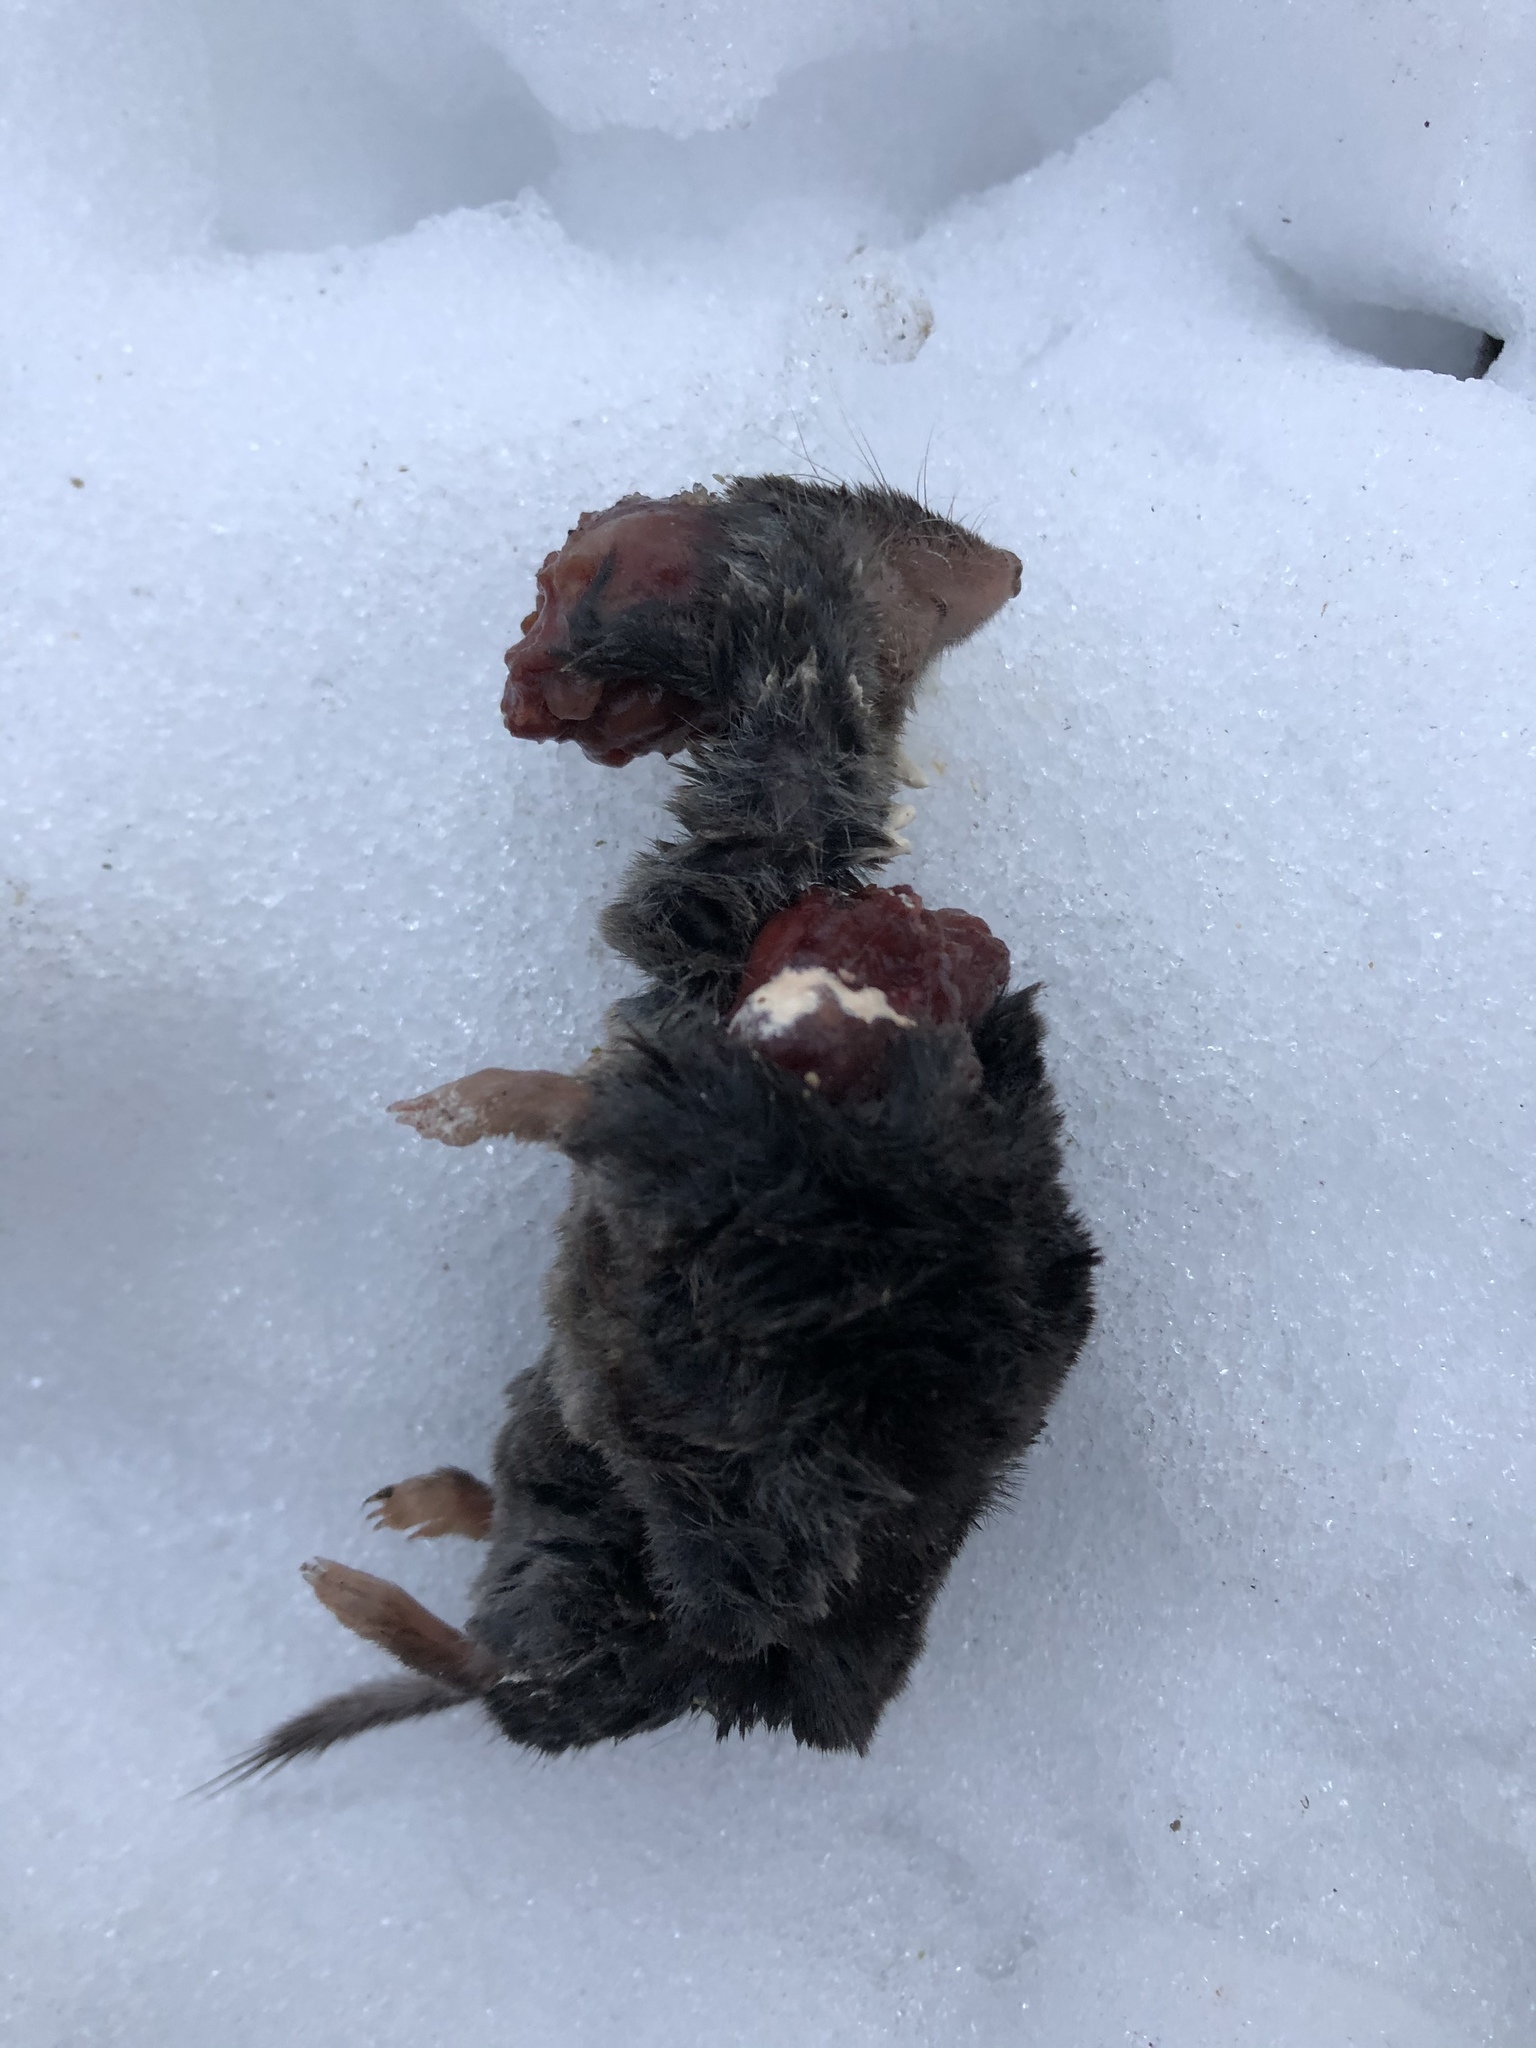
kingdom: Animalia
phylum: Chordata
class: Mammalia
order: Soricomorpha
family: Soricidae
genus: Blarina
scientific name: Blarina brevicauda
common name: Northern short-tailed shrew
